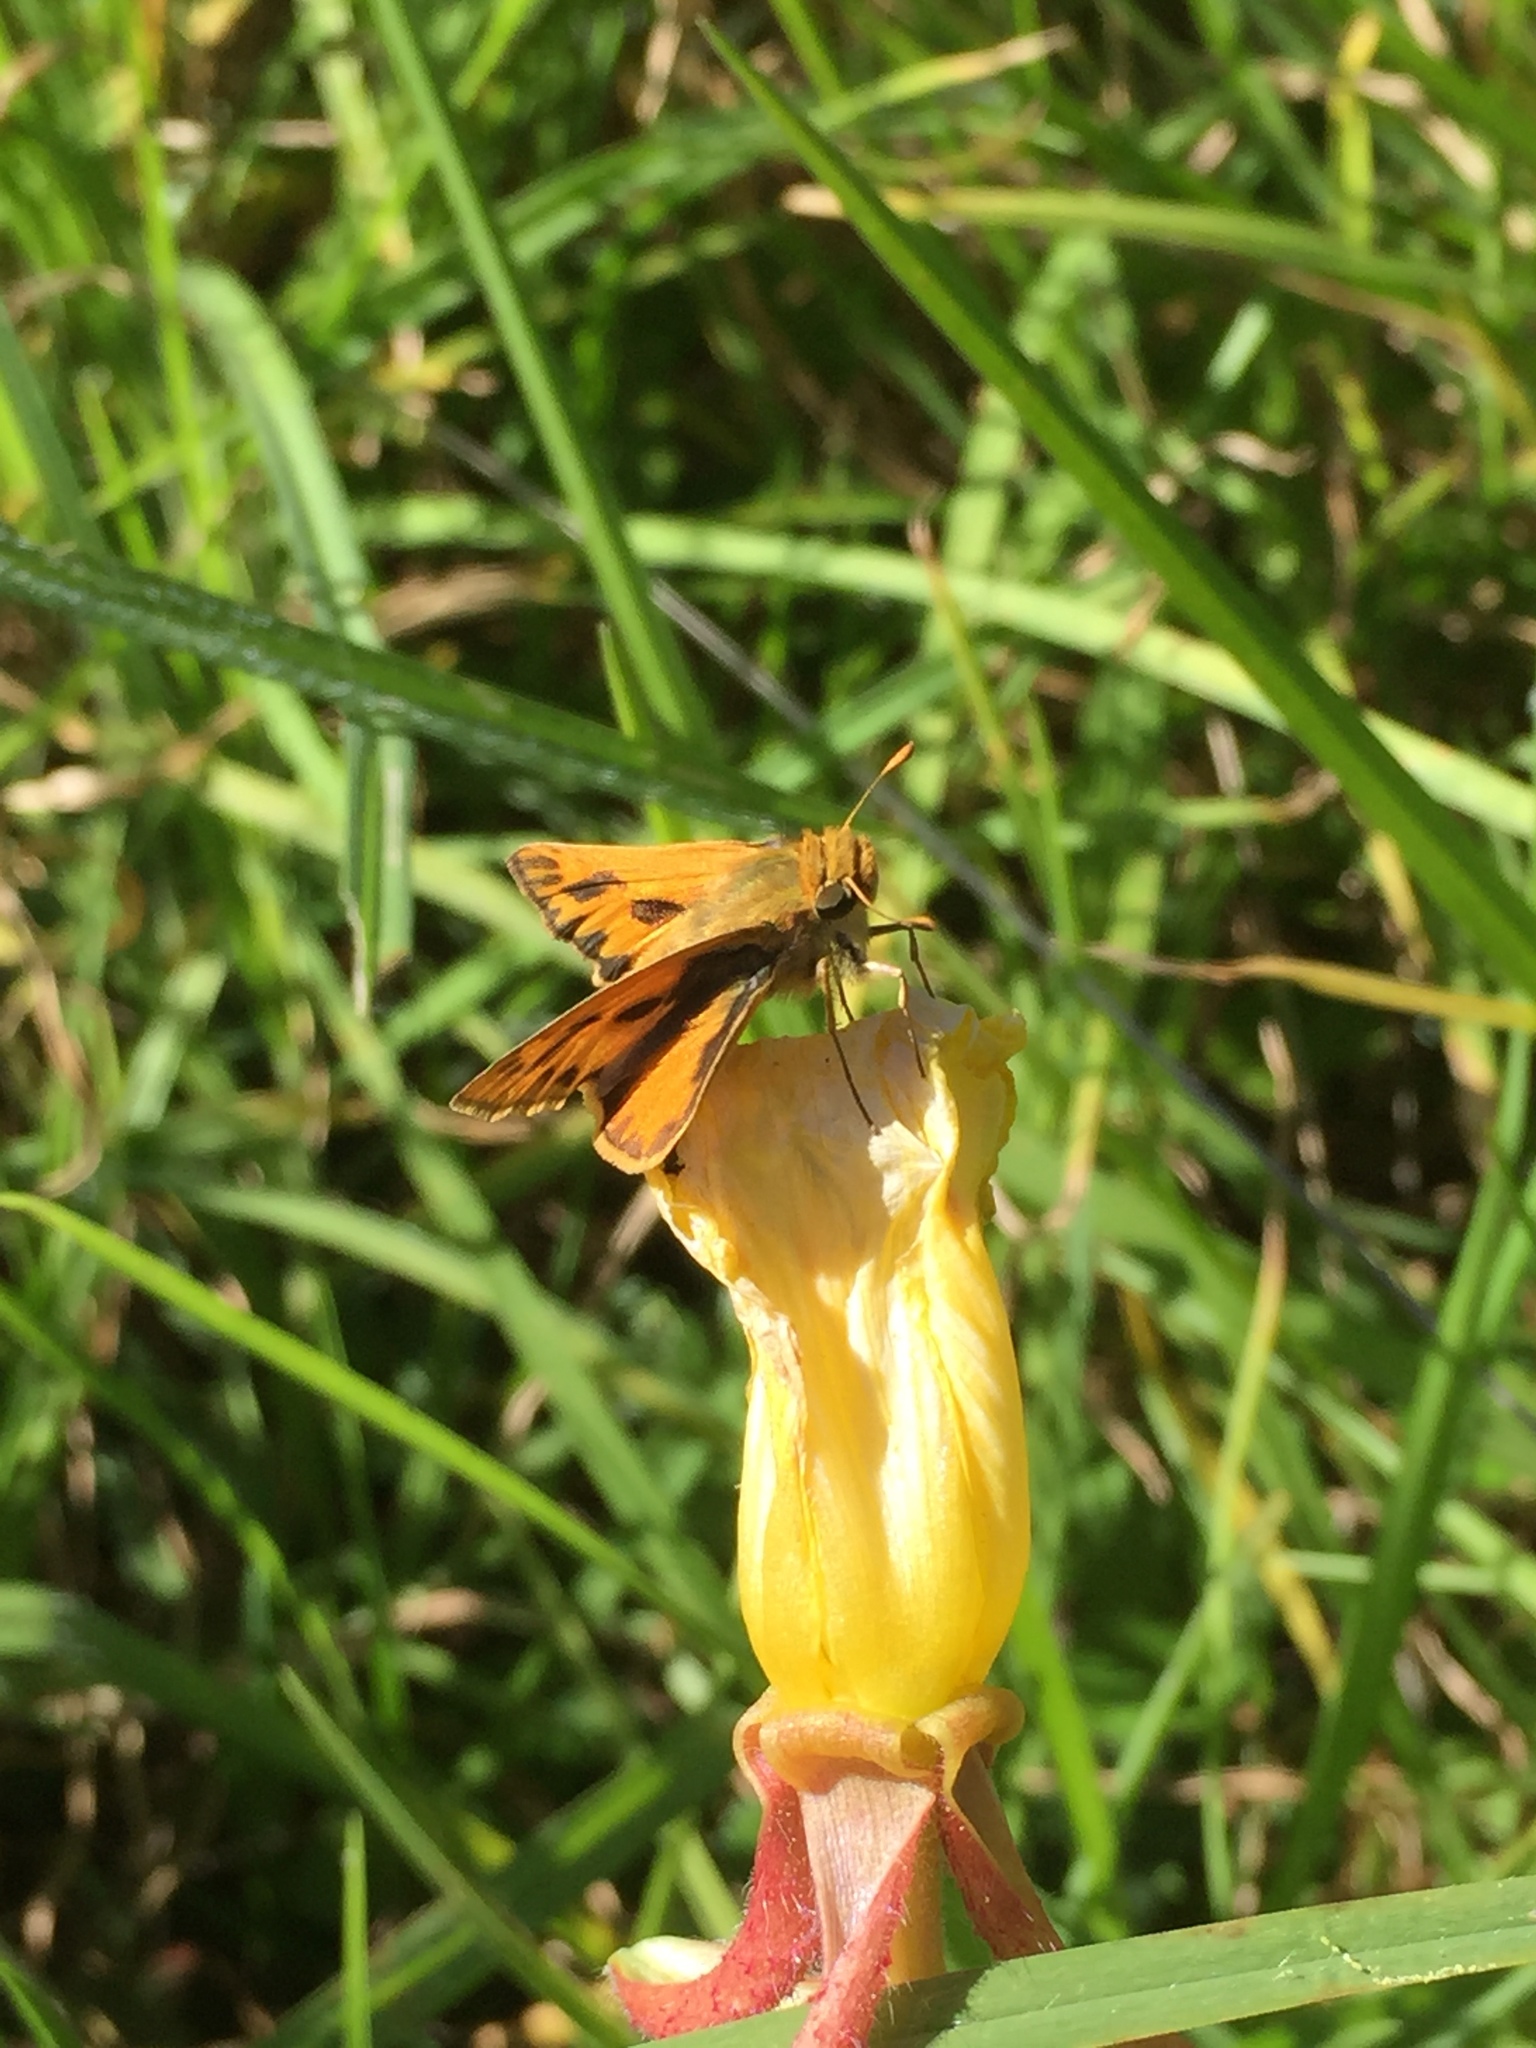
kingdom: Animalia
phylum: Arthropoda
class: Insecta
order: Lepidoptera
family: Hesperiidae
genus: Hylephila
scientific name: Hylephila phyleus
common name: Fiery skipper
